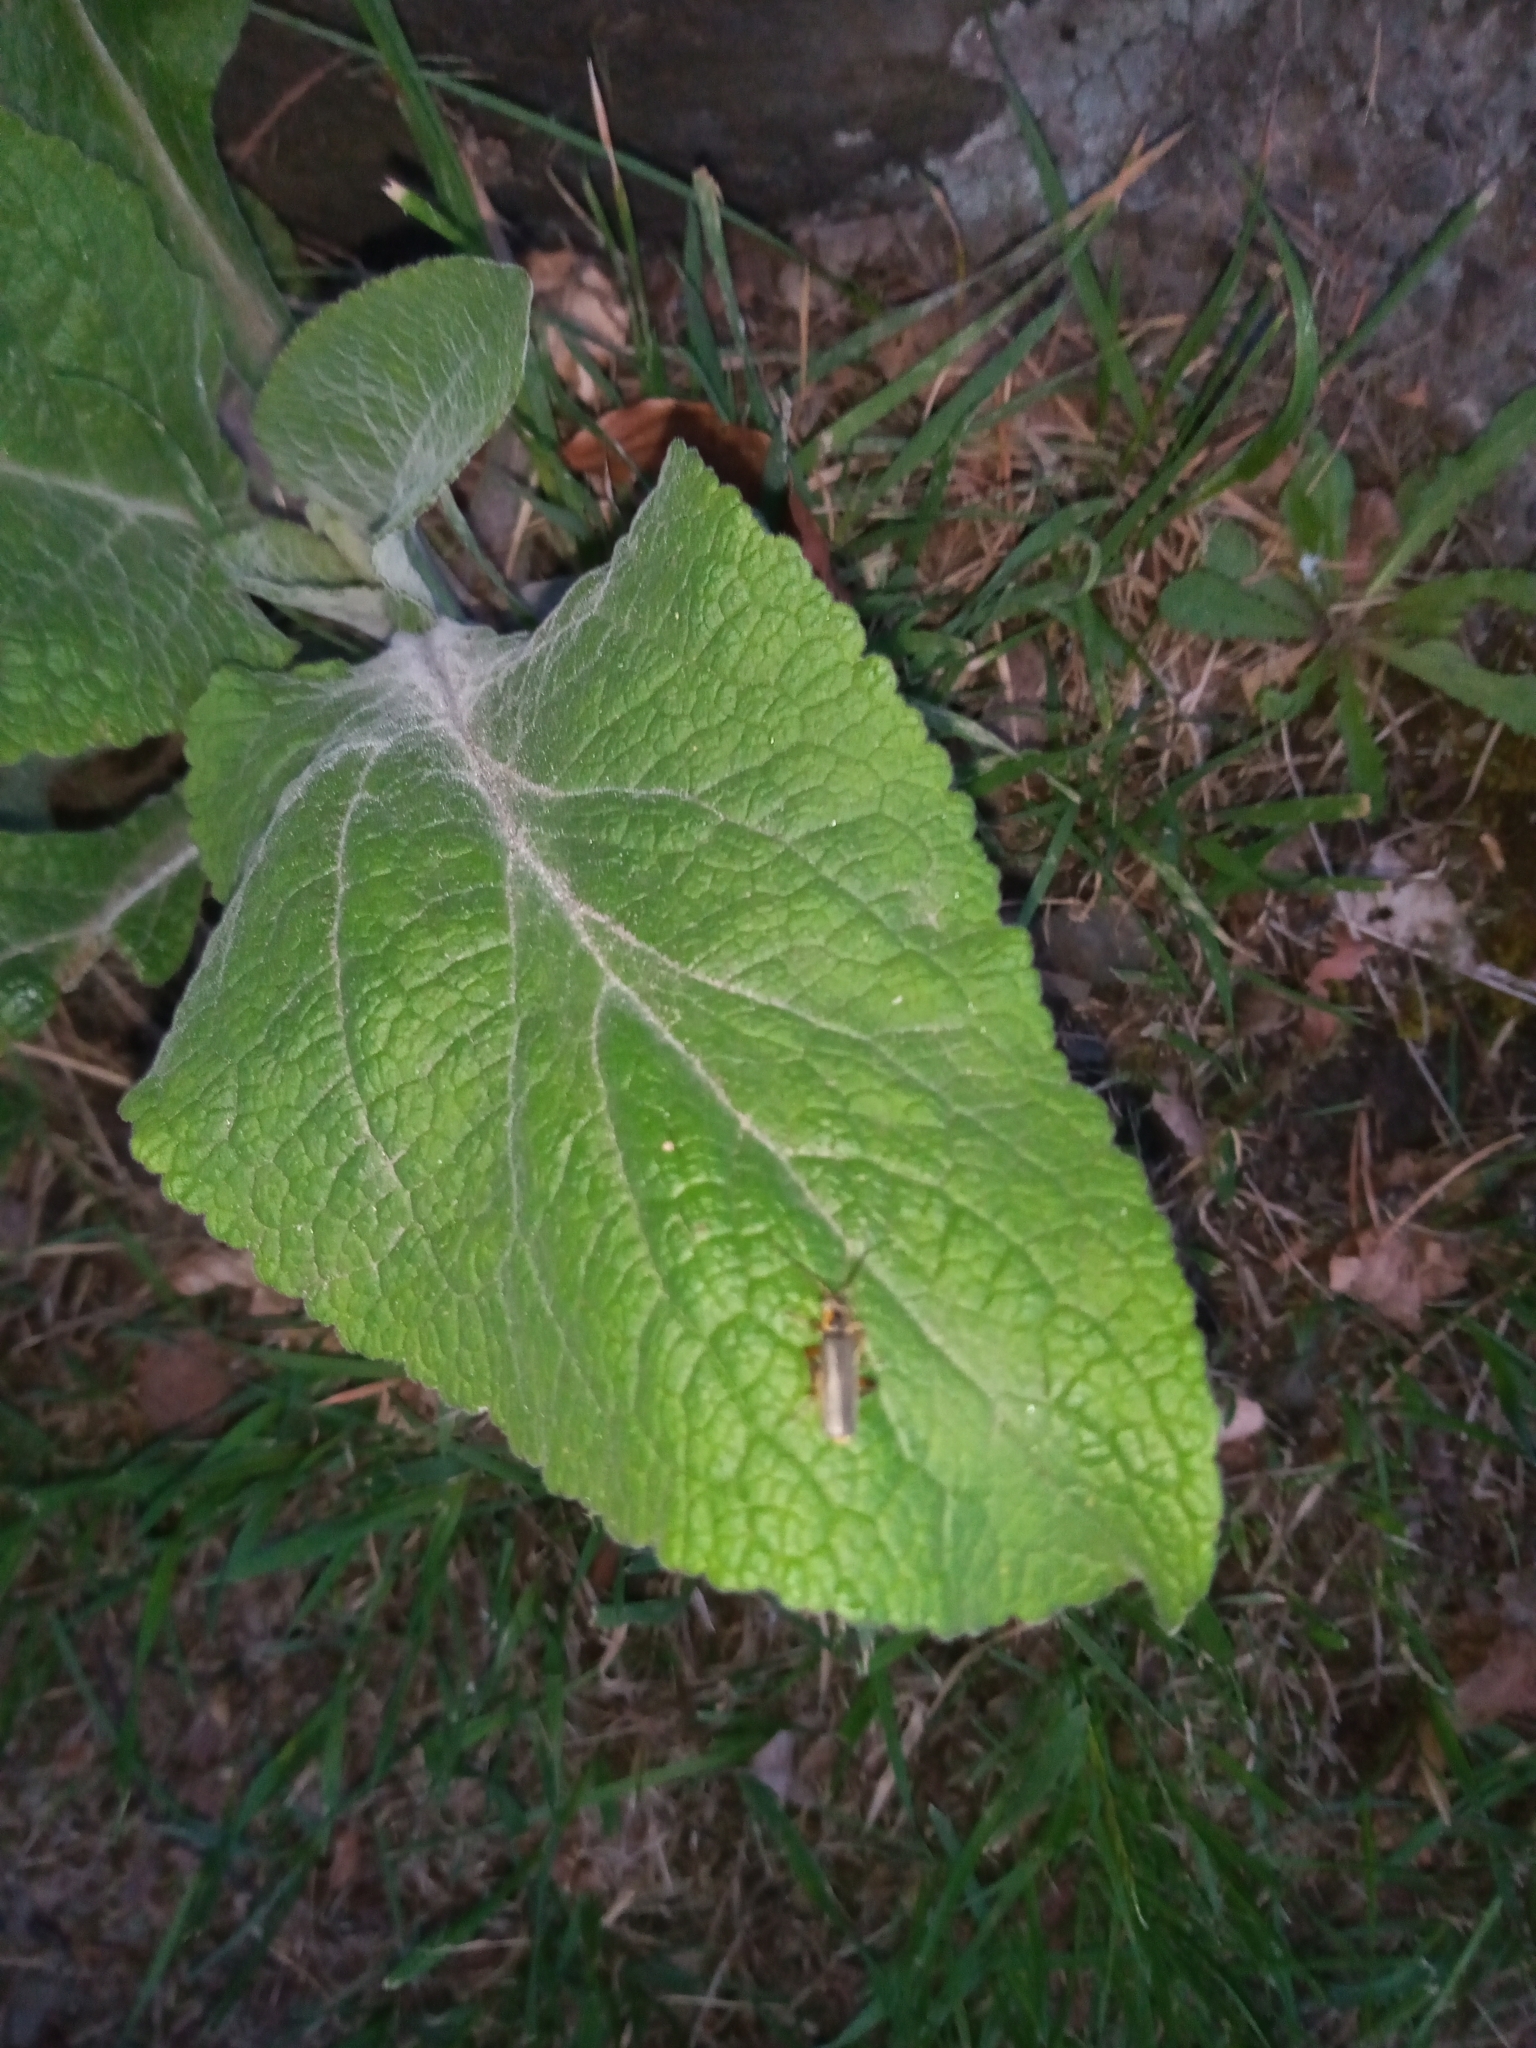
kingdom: Animalia
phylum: Arthropoda
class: Insecta
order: Coleoptera
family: Cantharidae
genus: Cantharis
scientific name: Cantharis nigricans
